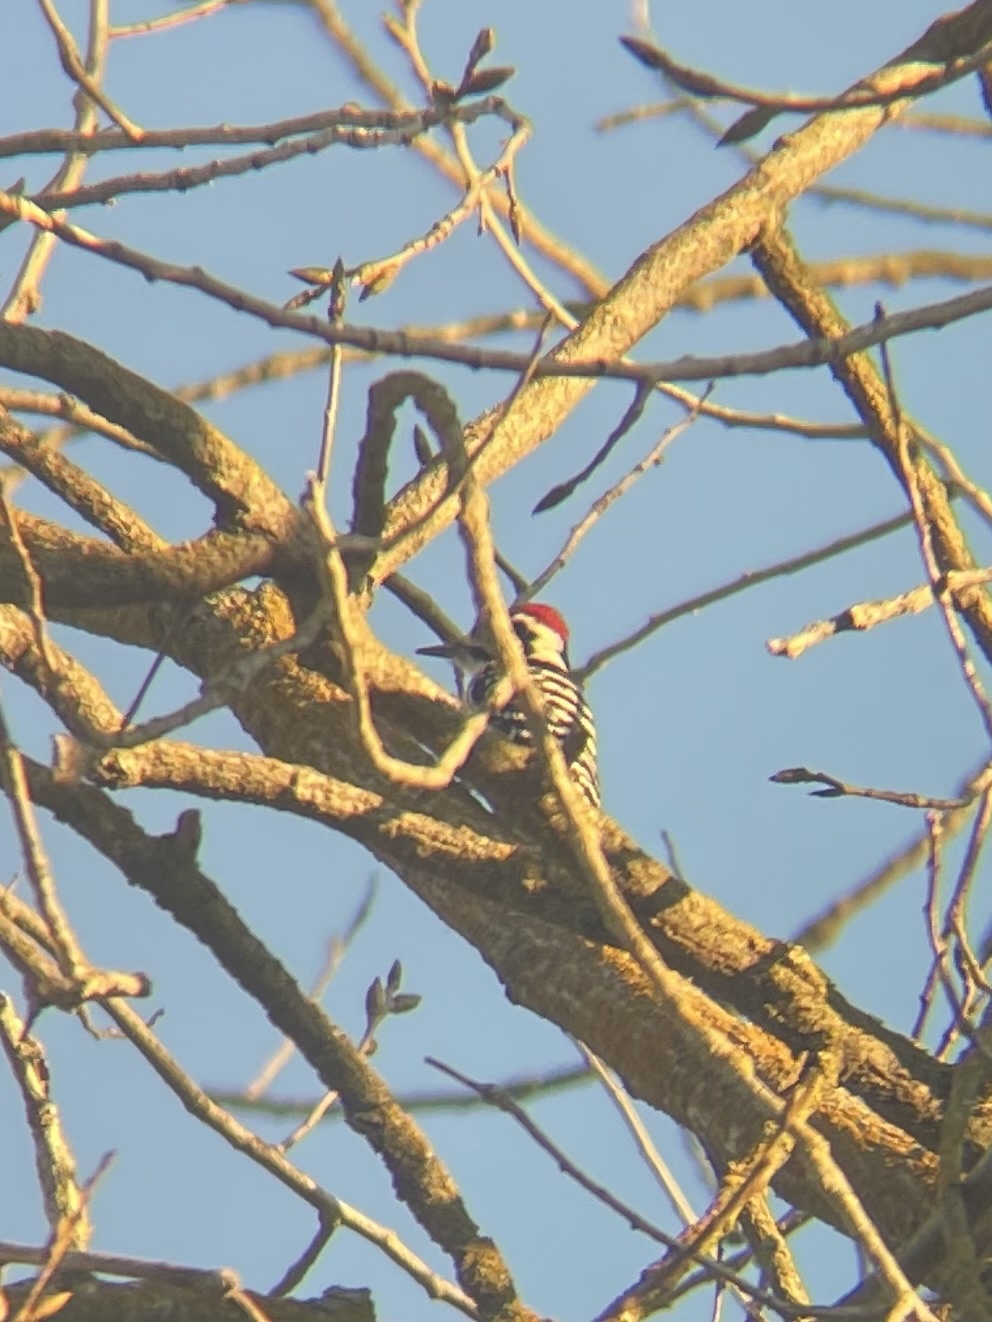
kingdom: Animalia
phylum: Chordata
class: Aves
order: Piciformes
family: Picidae
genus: Dryobates
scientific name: Dryobates nuttallii
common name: Nuttall's woodpecker
